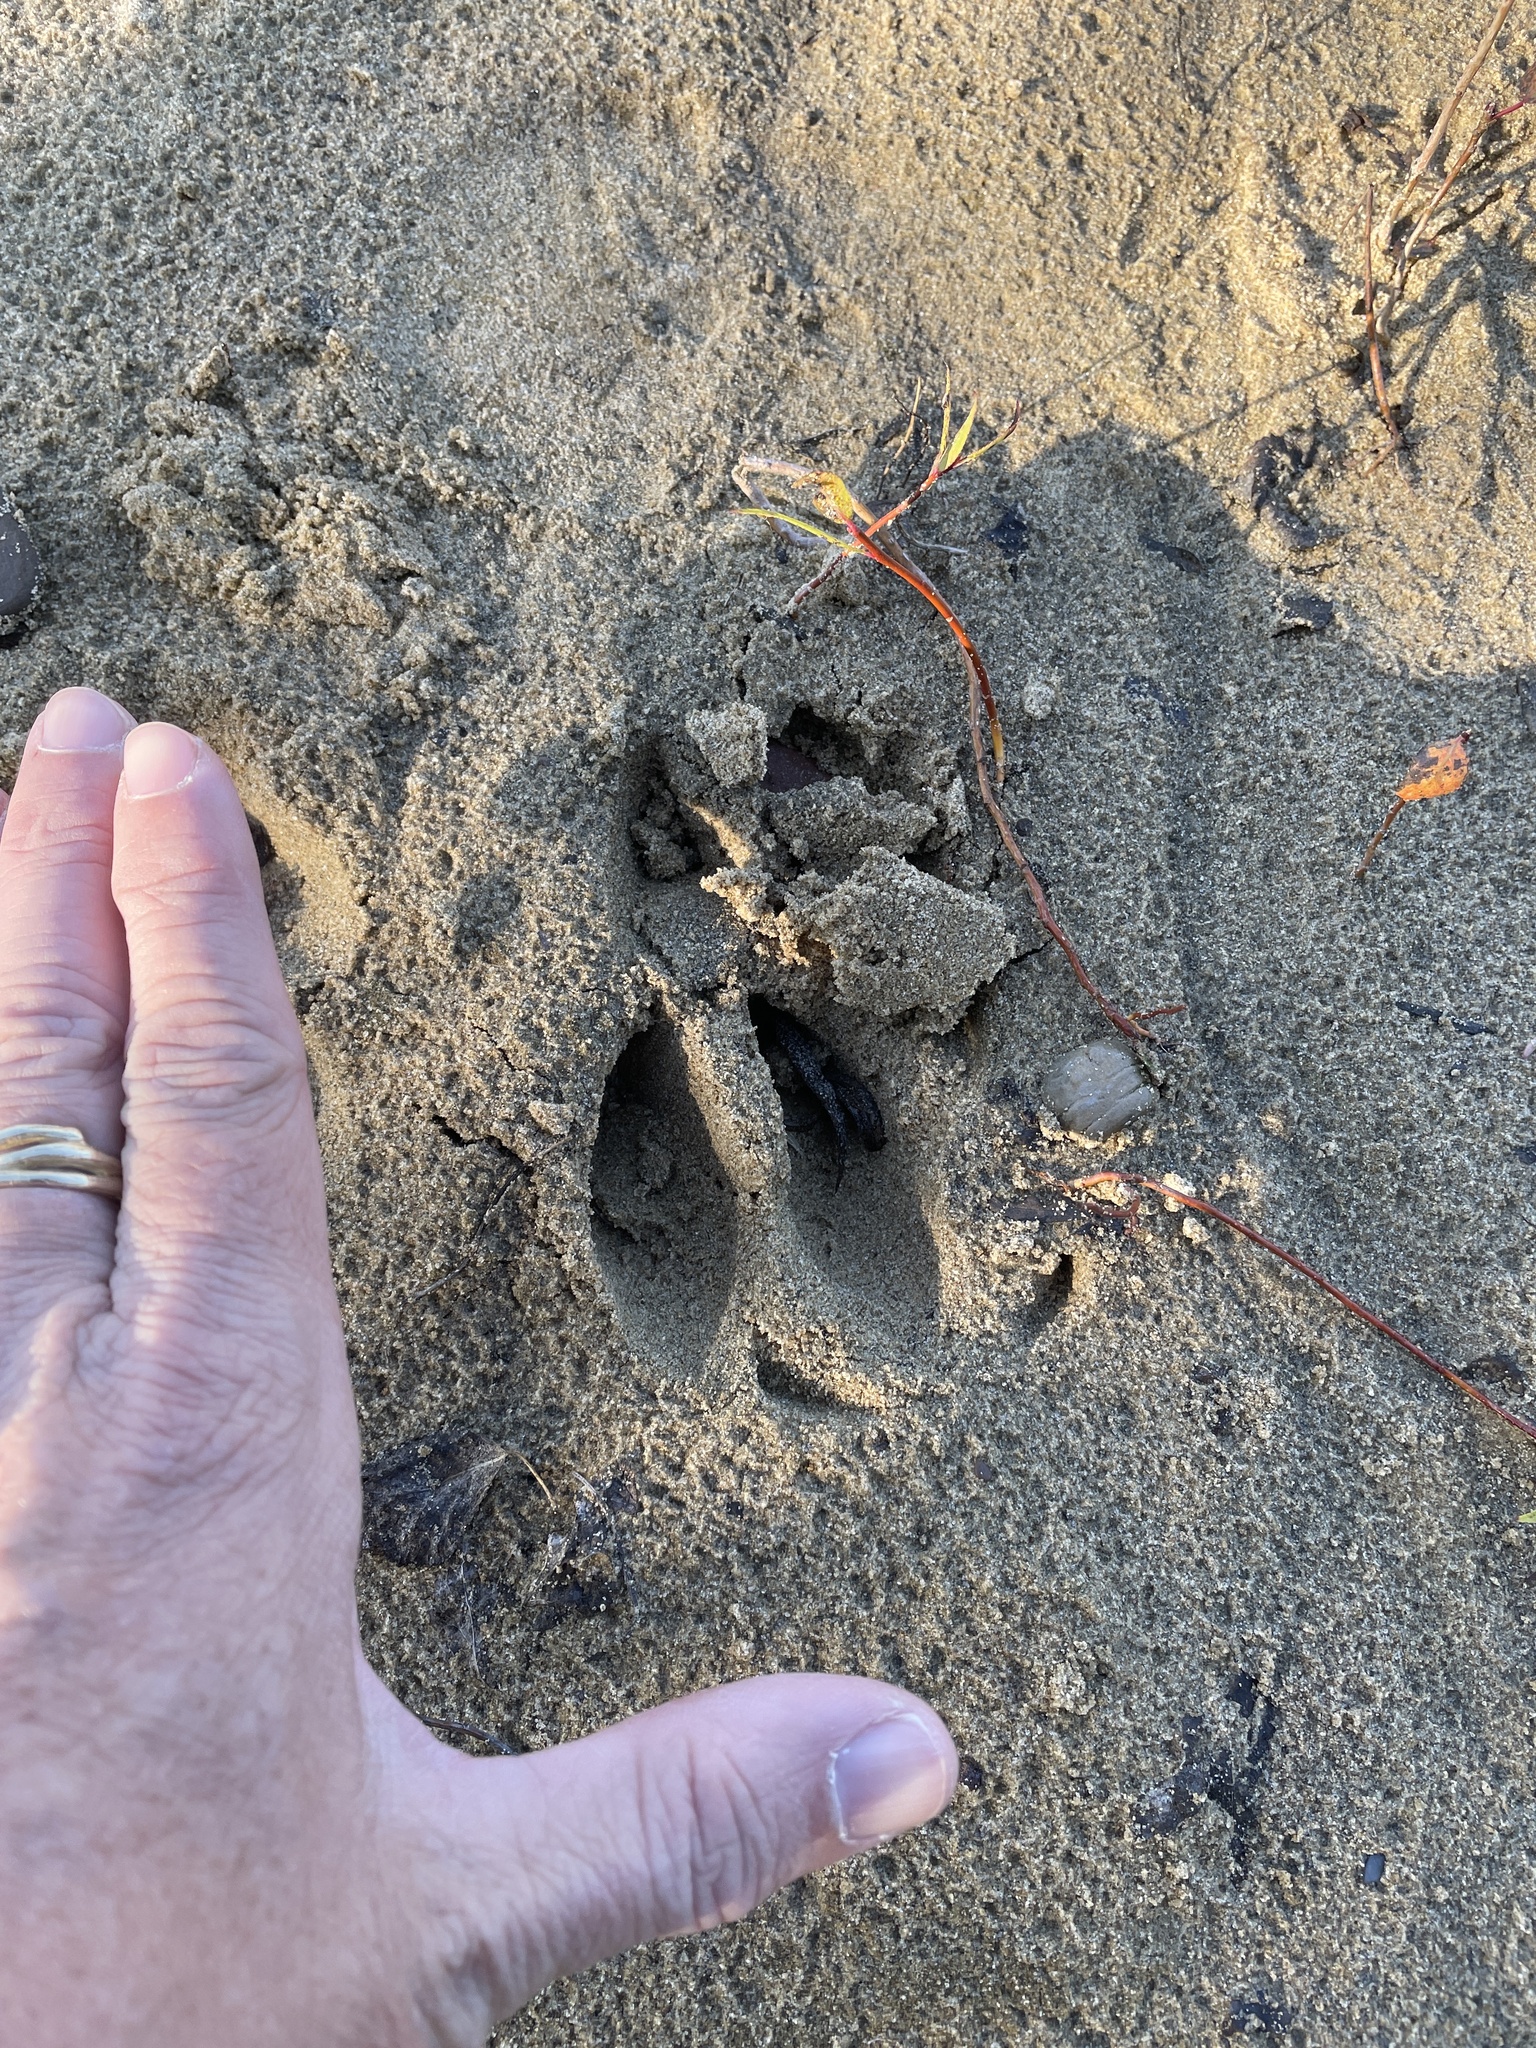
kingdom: Animalia
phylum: Chordata
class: Mammalia
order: Artiodactyla
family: Cervidae
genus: Odocoileus
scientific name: Odocoileus virginianus
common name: White-tailed deer
